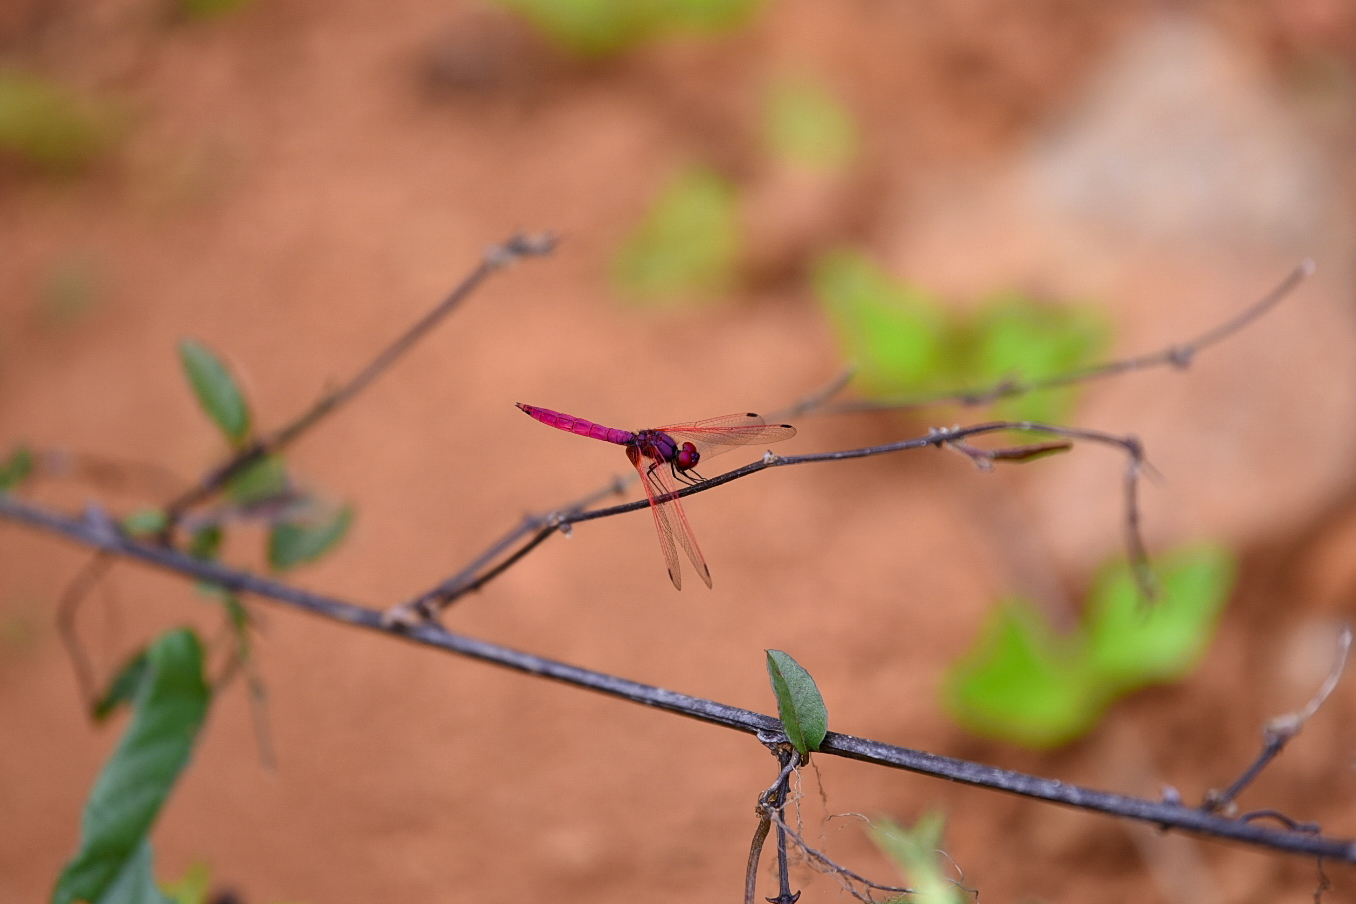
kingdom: Animalia
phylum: Arthropoda
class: Insecta
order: Odonata
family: Libellulidae
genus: Trithemis
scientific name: Trithemis aurora
